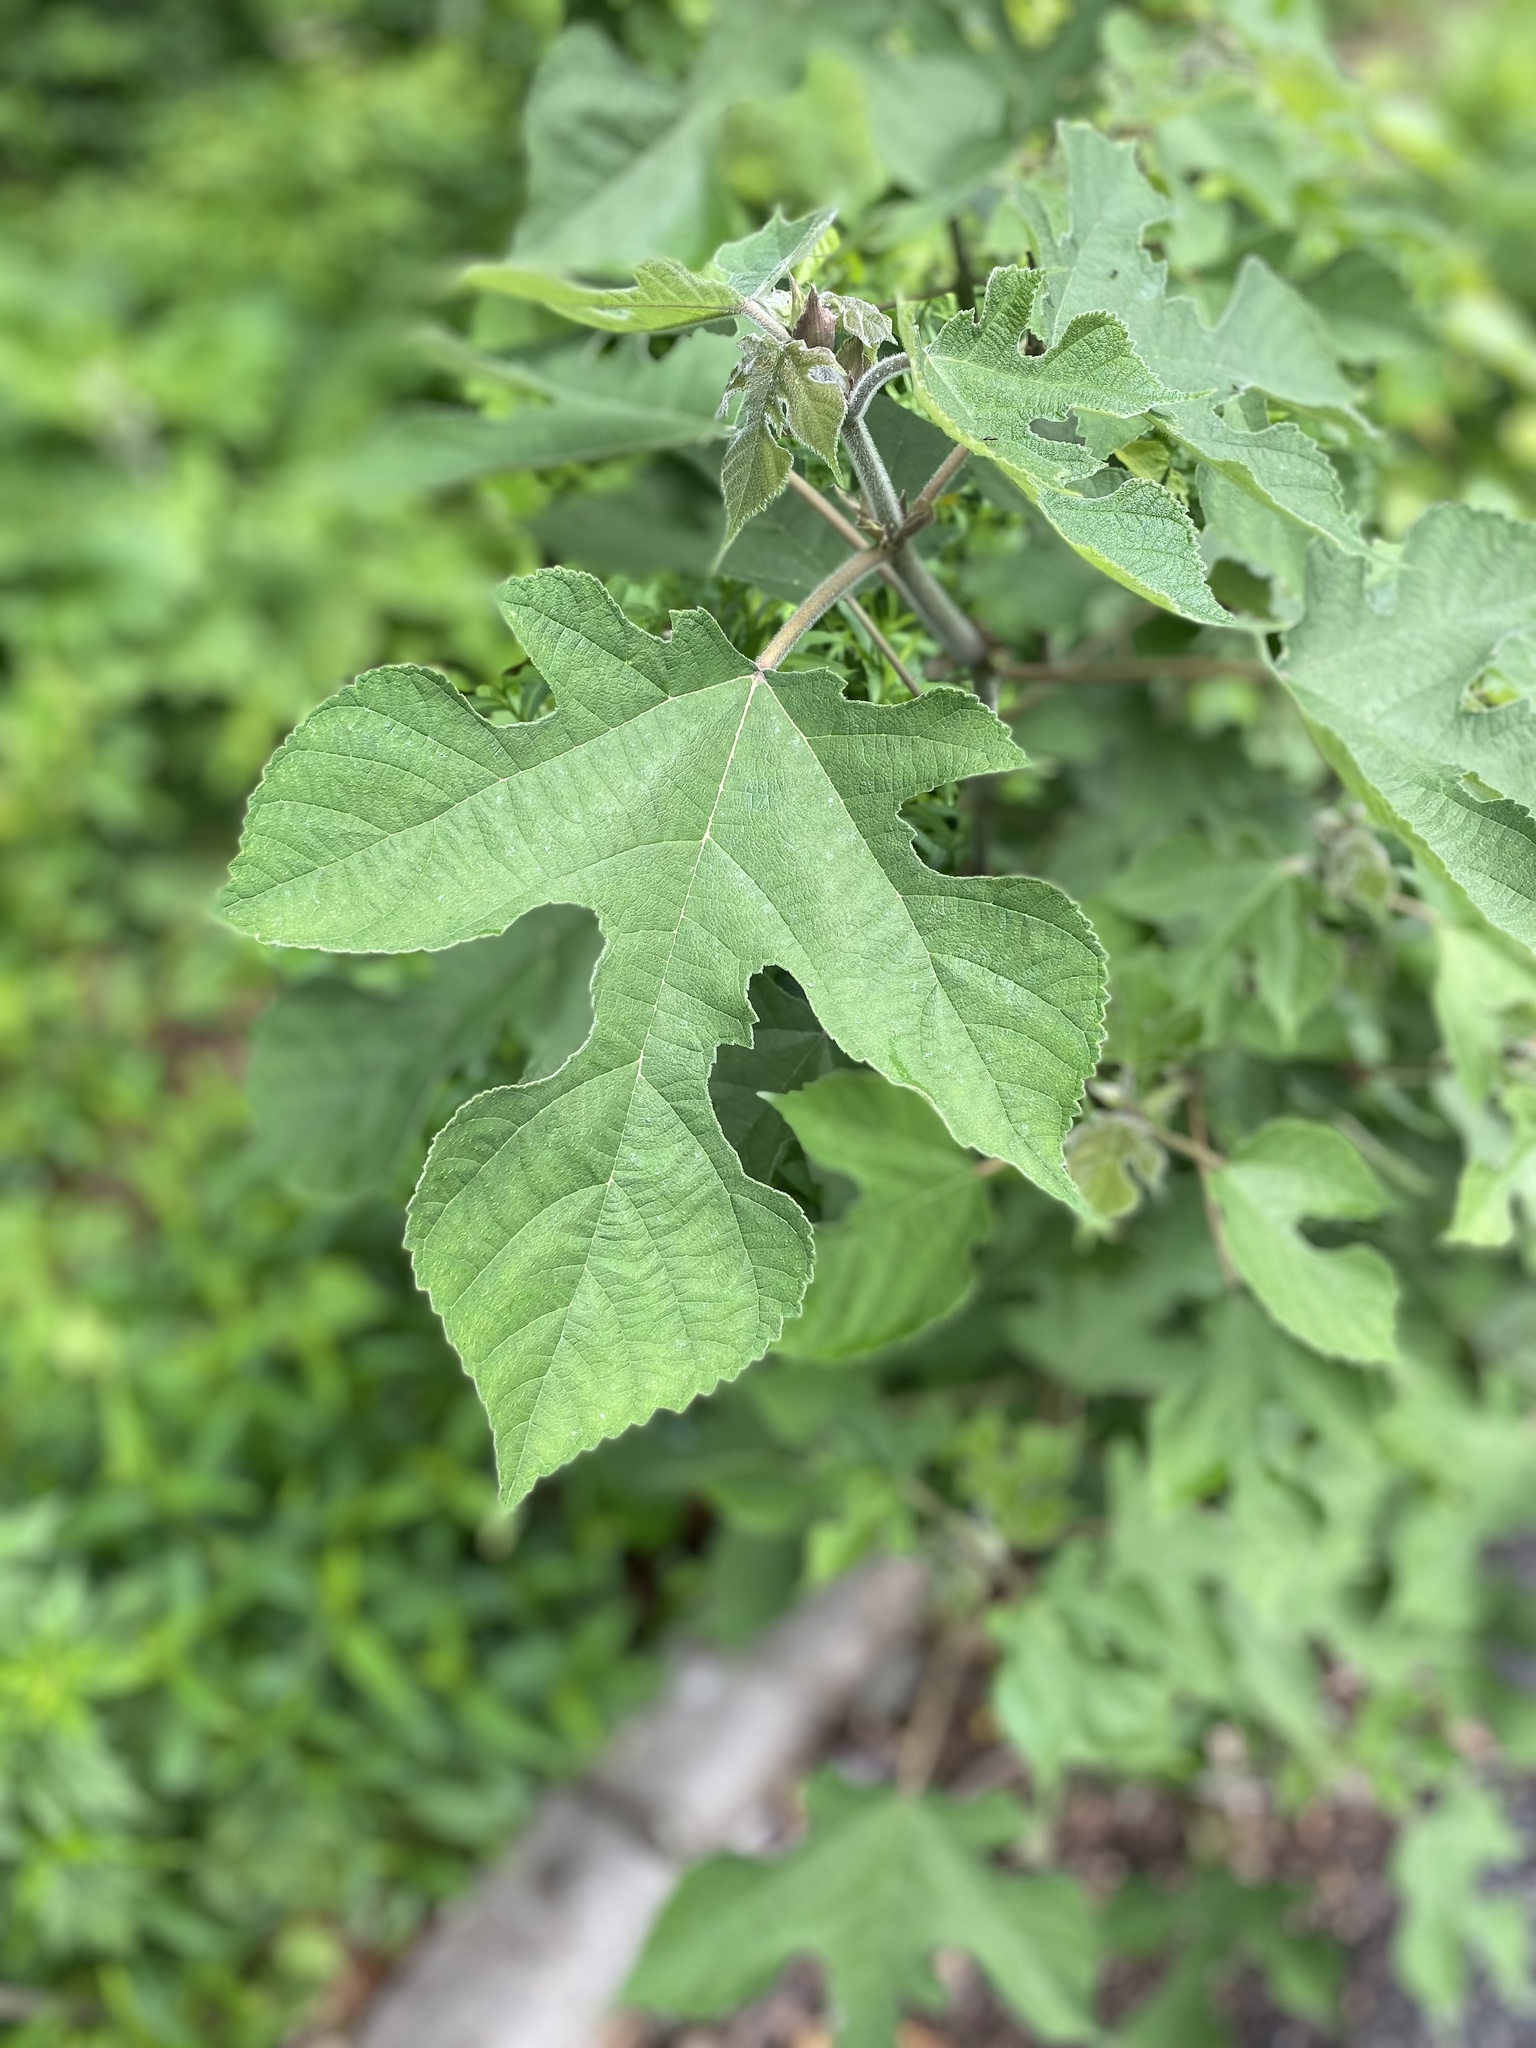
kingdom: Plantae
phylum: Tracheophyta
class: Magnoliopsida
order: Rosales
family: Moraceae
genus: Broussonetia
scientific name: Broussonetia papyrifera
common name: Paper mulberry
